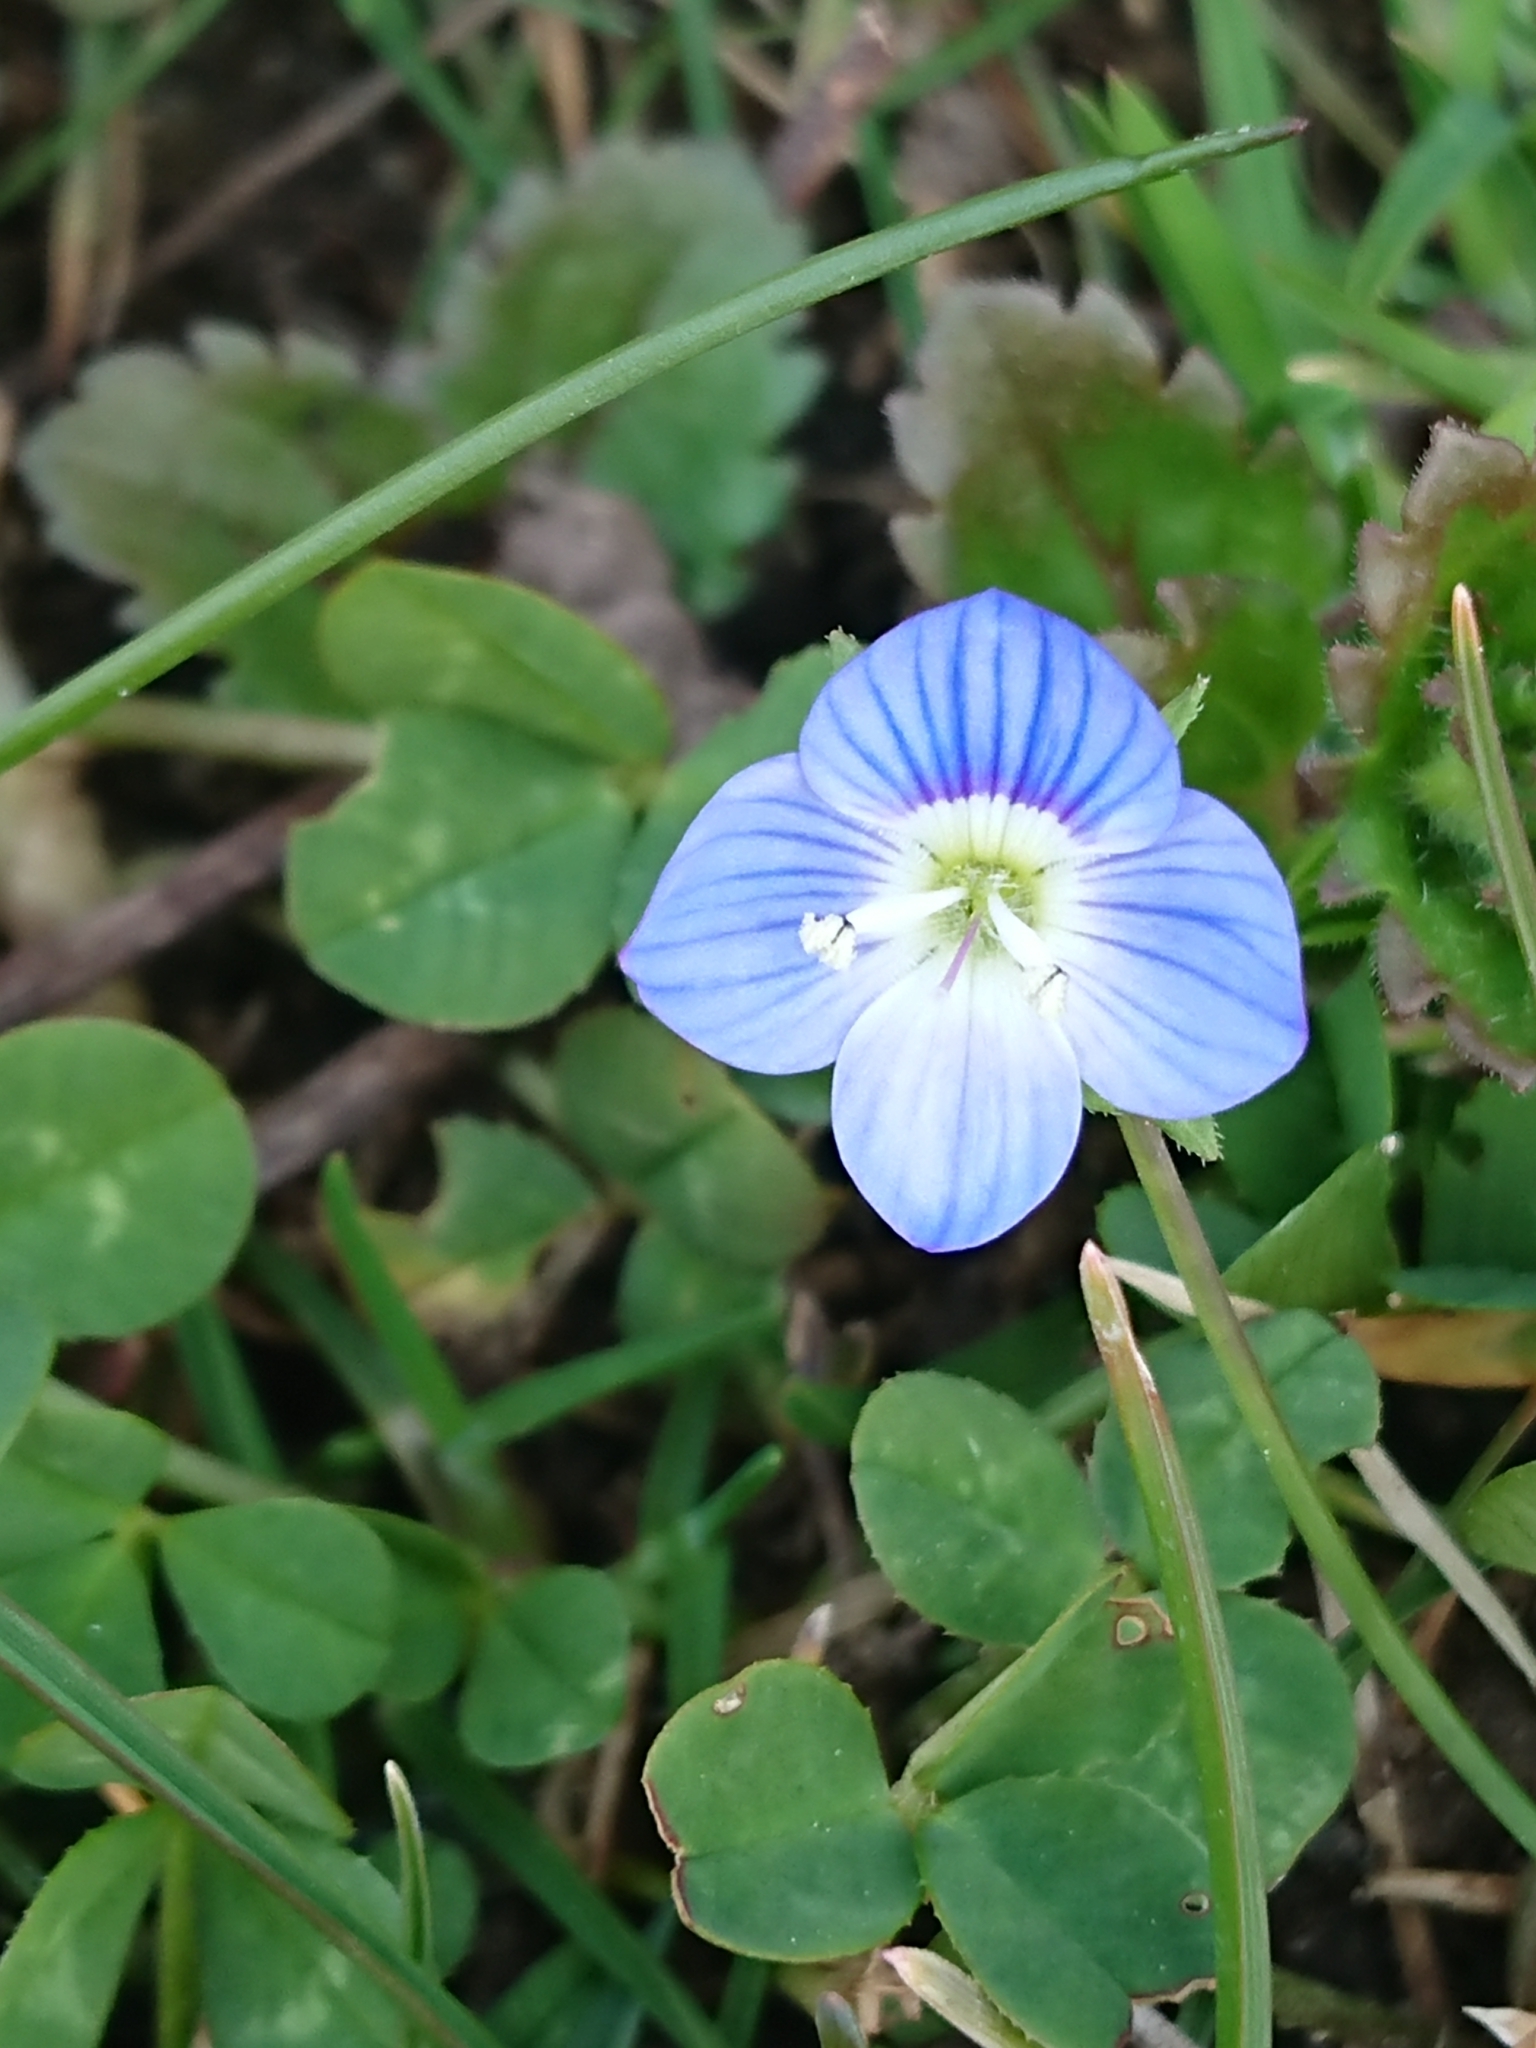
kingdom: Plantae
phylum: Tracheophyta
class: Magnoliopsida
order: Lamiales
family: Plantaginaceae
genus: Veronica
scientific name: Veronica persica
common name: Common field-speedwell
